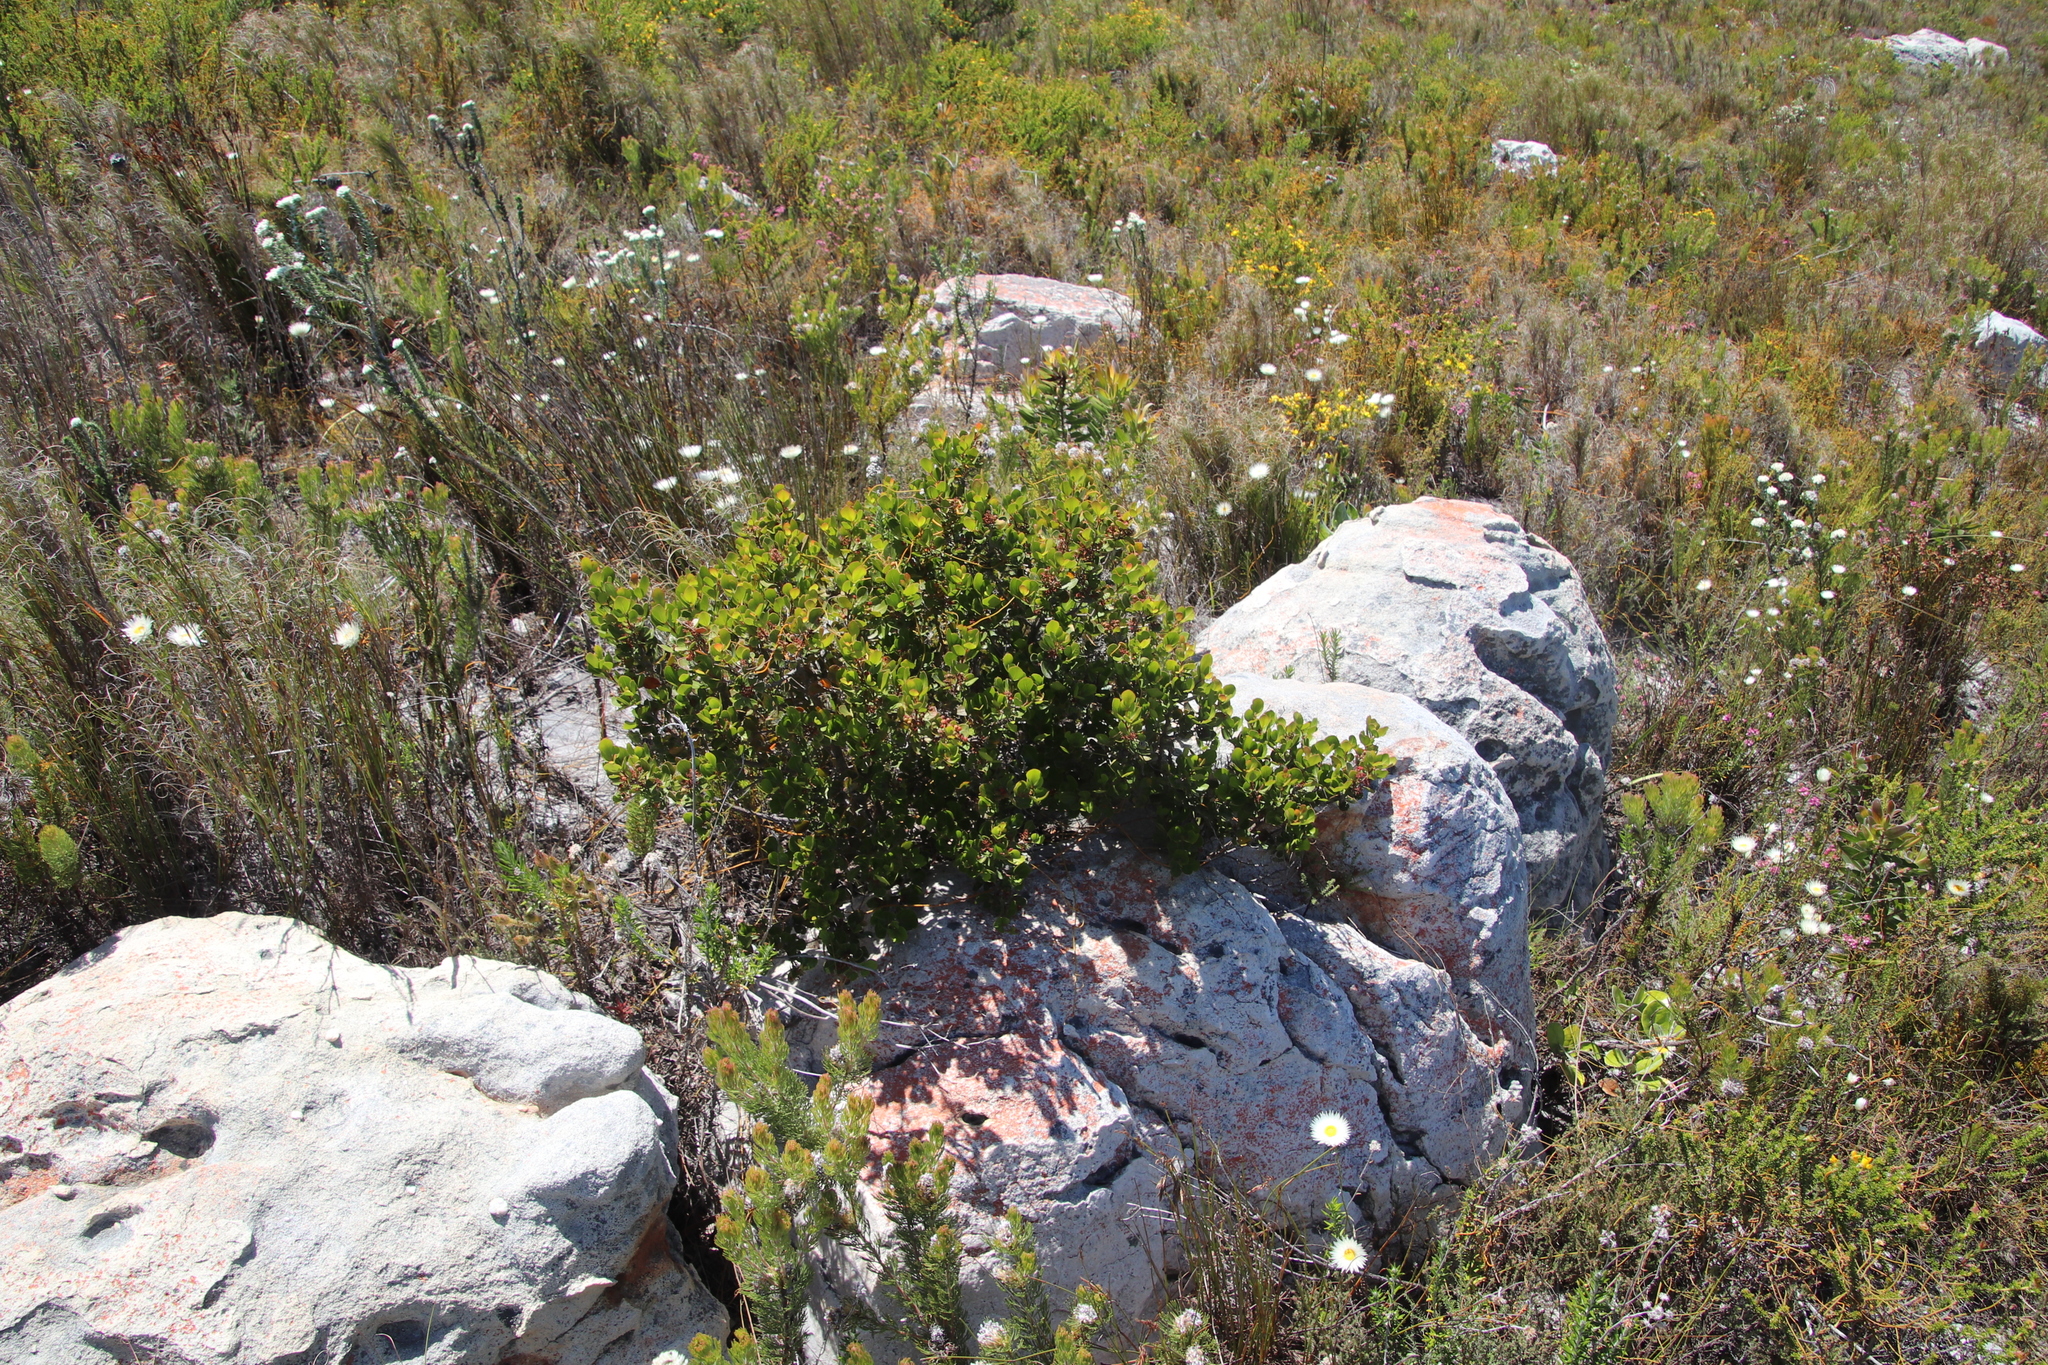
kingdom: Plantae
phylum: Tracheophyta
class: Magnoliopsida
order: Sapindales
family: Anacardiaceae
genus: Searsia
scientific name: Searsia lucida
